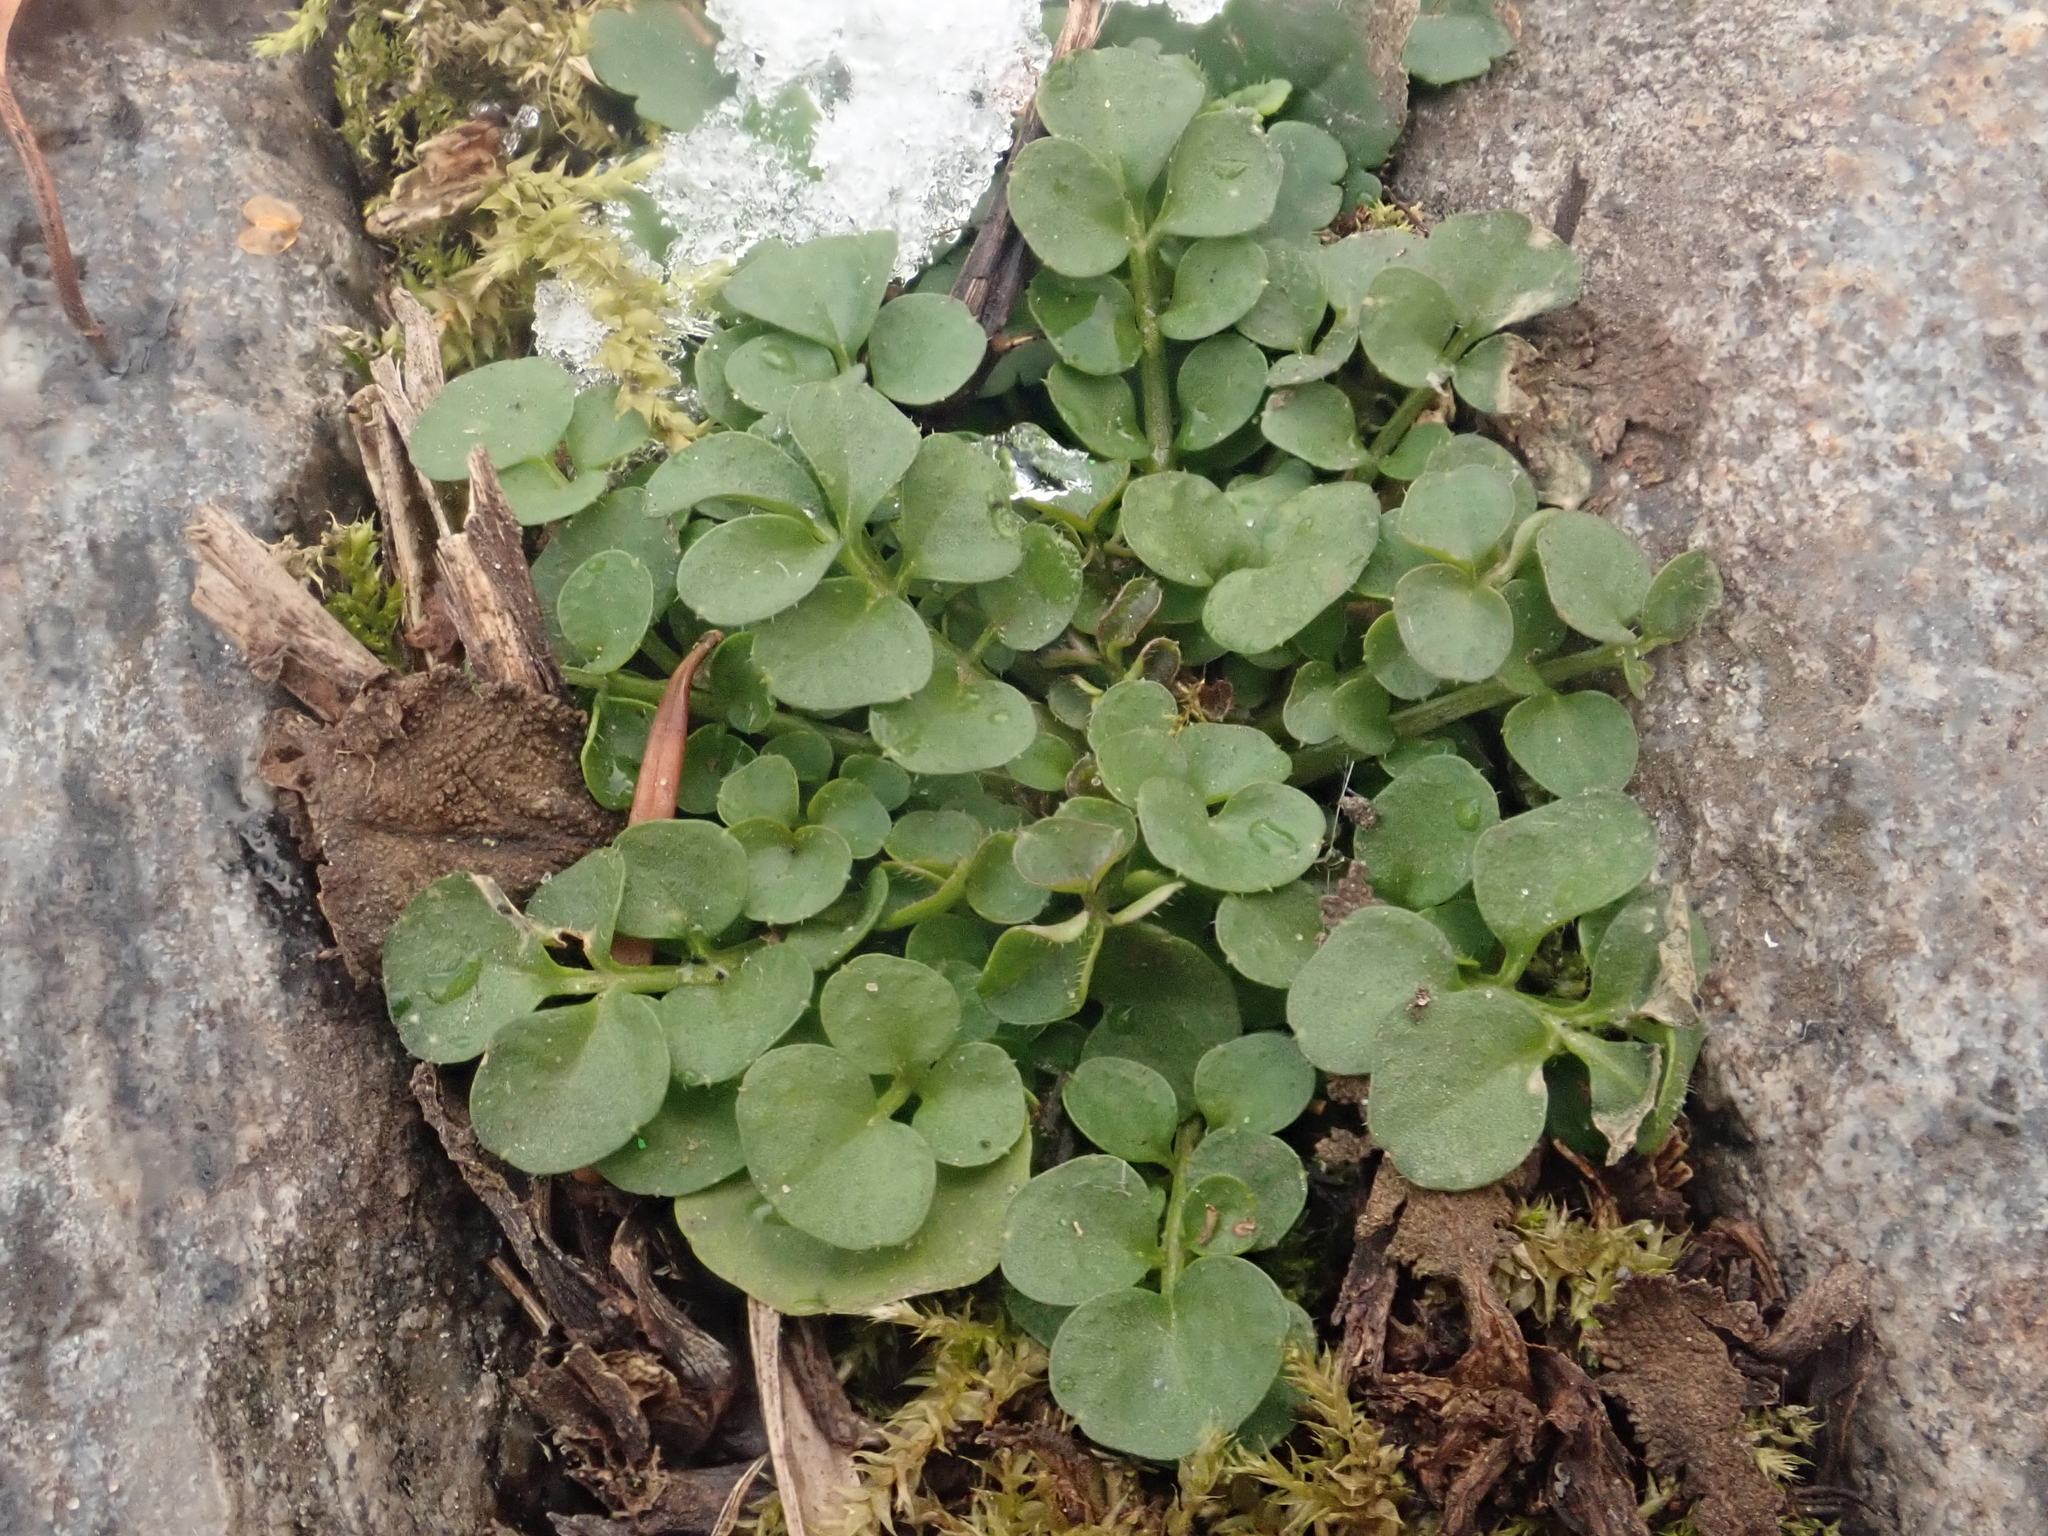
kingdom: Plantae
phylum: Tracheophyta
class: Magnoliopsida
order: Brassicales
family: Brassicaceae
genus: Cardamine
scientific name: Cardamine hirsuta
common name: Hairy bittercress
